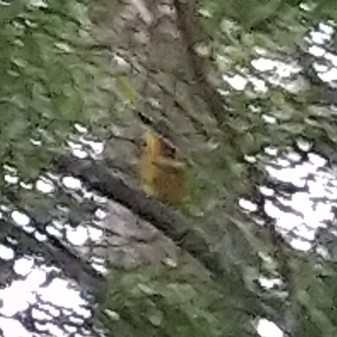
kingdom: Animalia
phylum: Chordata
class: Aves
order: Passeriformes
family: Malaconotidae
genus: Malaconotus
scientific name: Malaconotus blanchoti
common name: Grey-headed bushshrike
